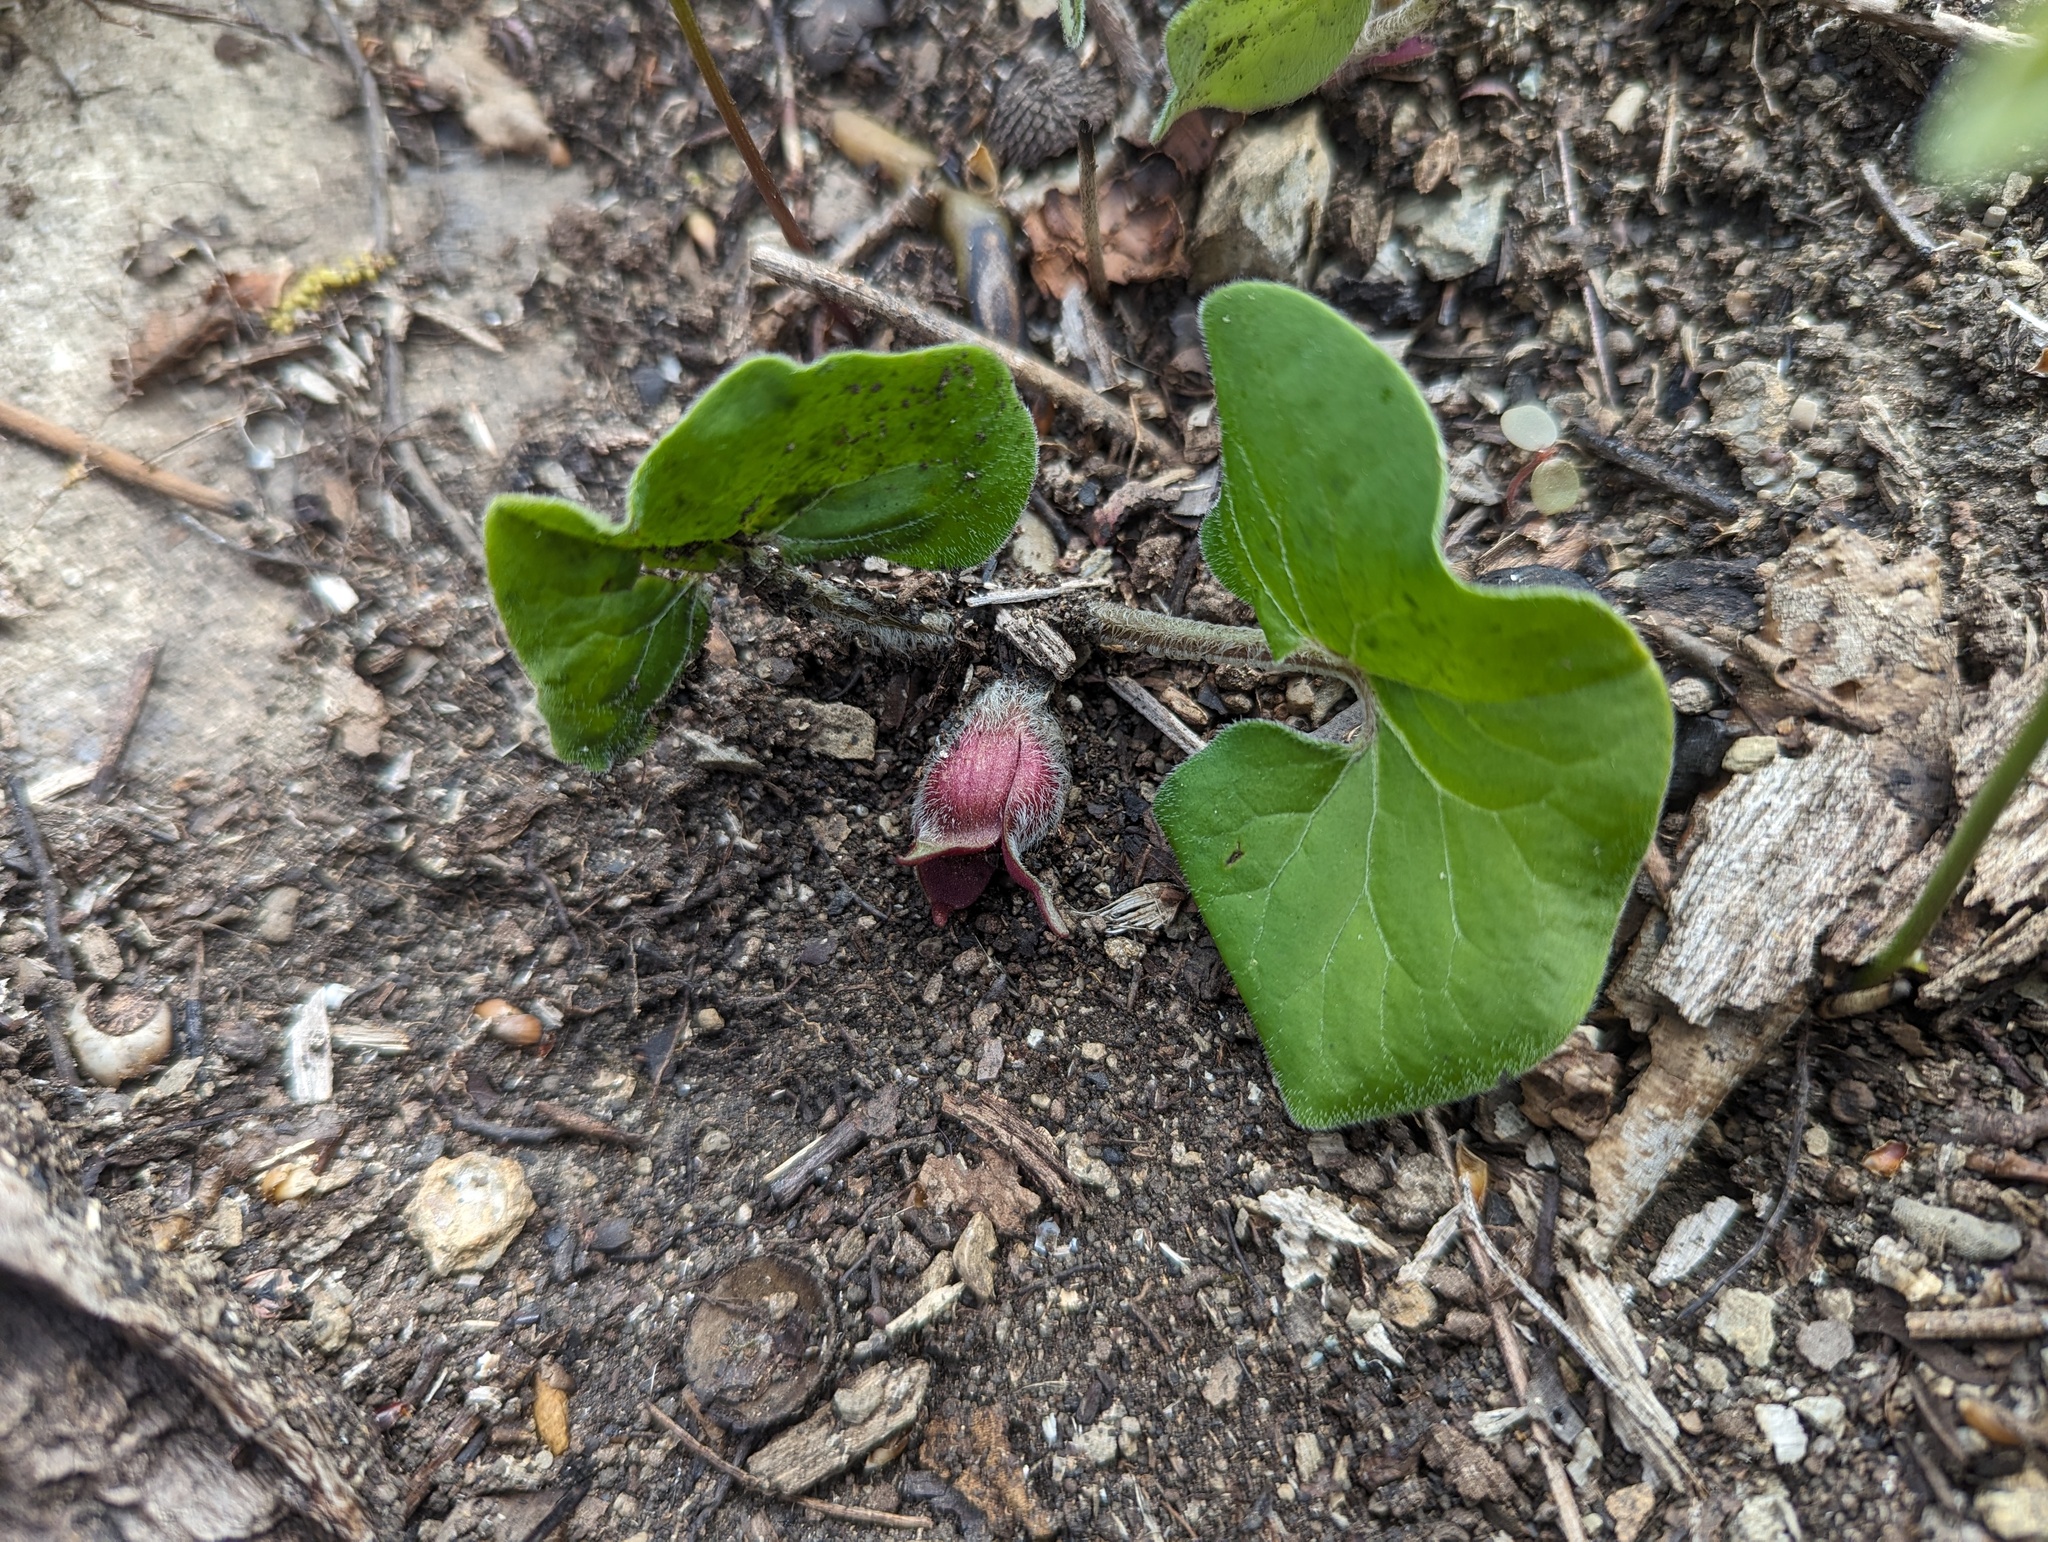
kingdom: Plantae
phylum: Tracheophyta
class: Magnoliopsida
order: Piperales
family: Aristolochiaceae
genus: Asarum
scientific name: Asarum canadense
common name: Wild ginger
